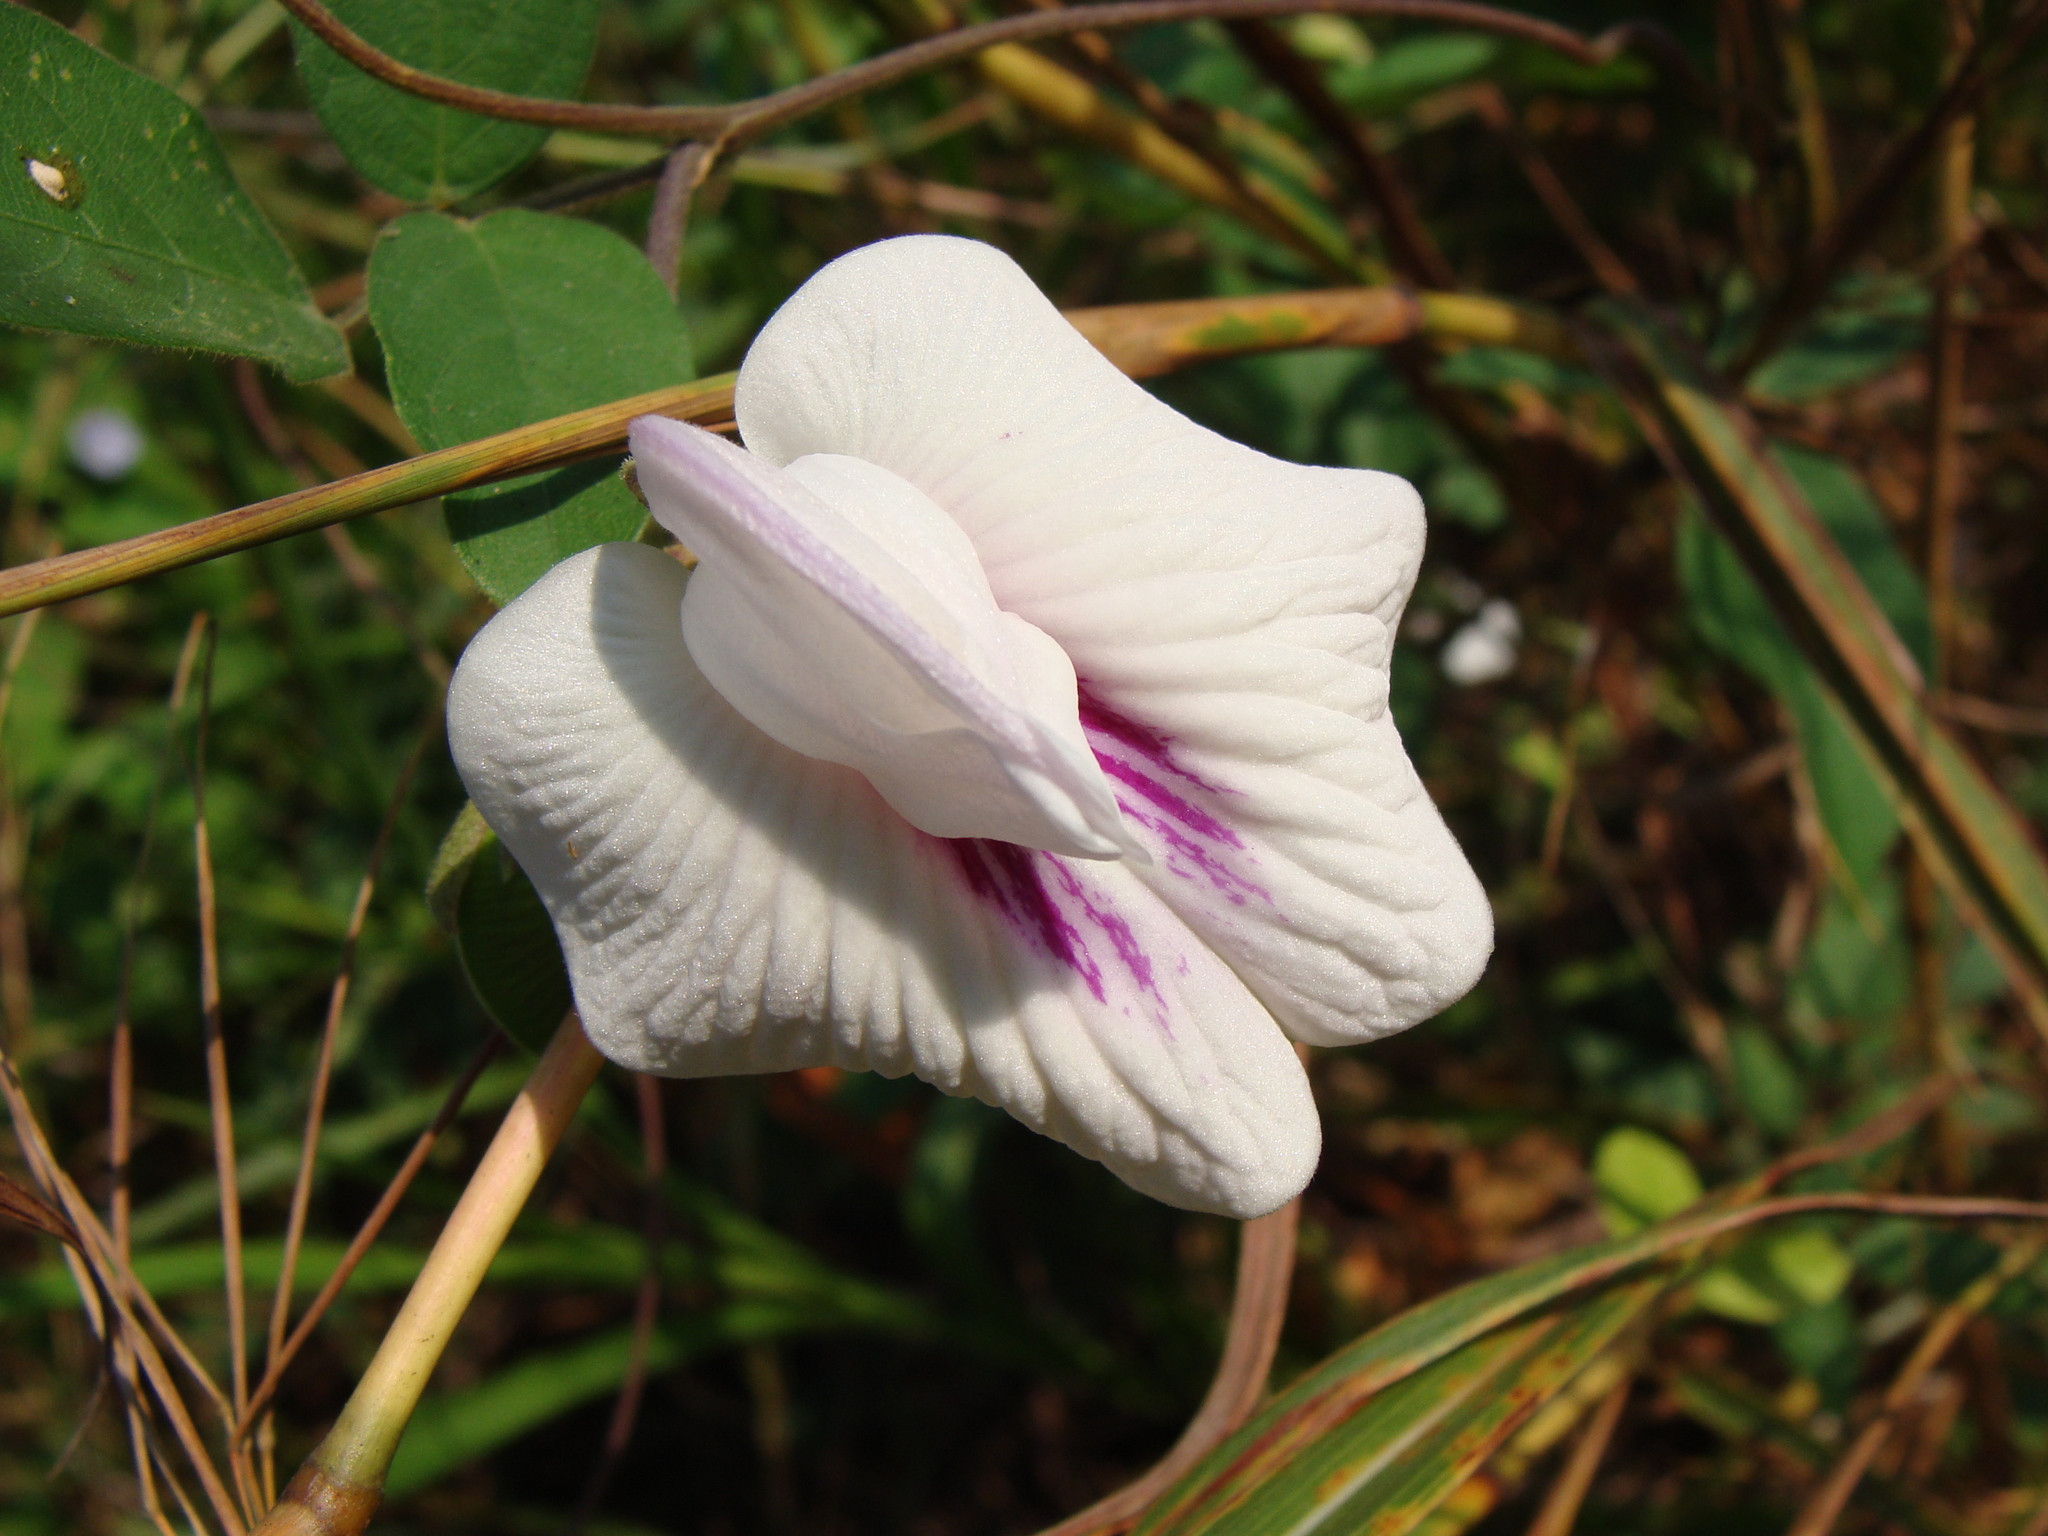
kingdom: Plantae
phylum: Tracheophyta
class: Magnoliopsida
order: Fabales
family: Fabaceae
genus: Centrosema
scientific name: Centrosema plumieri
